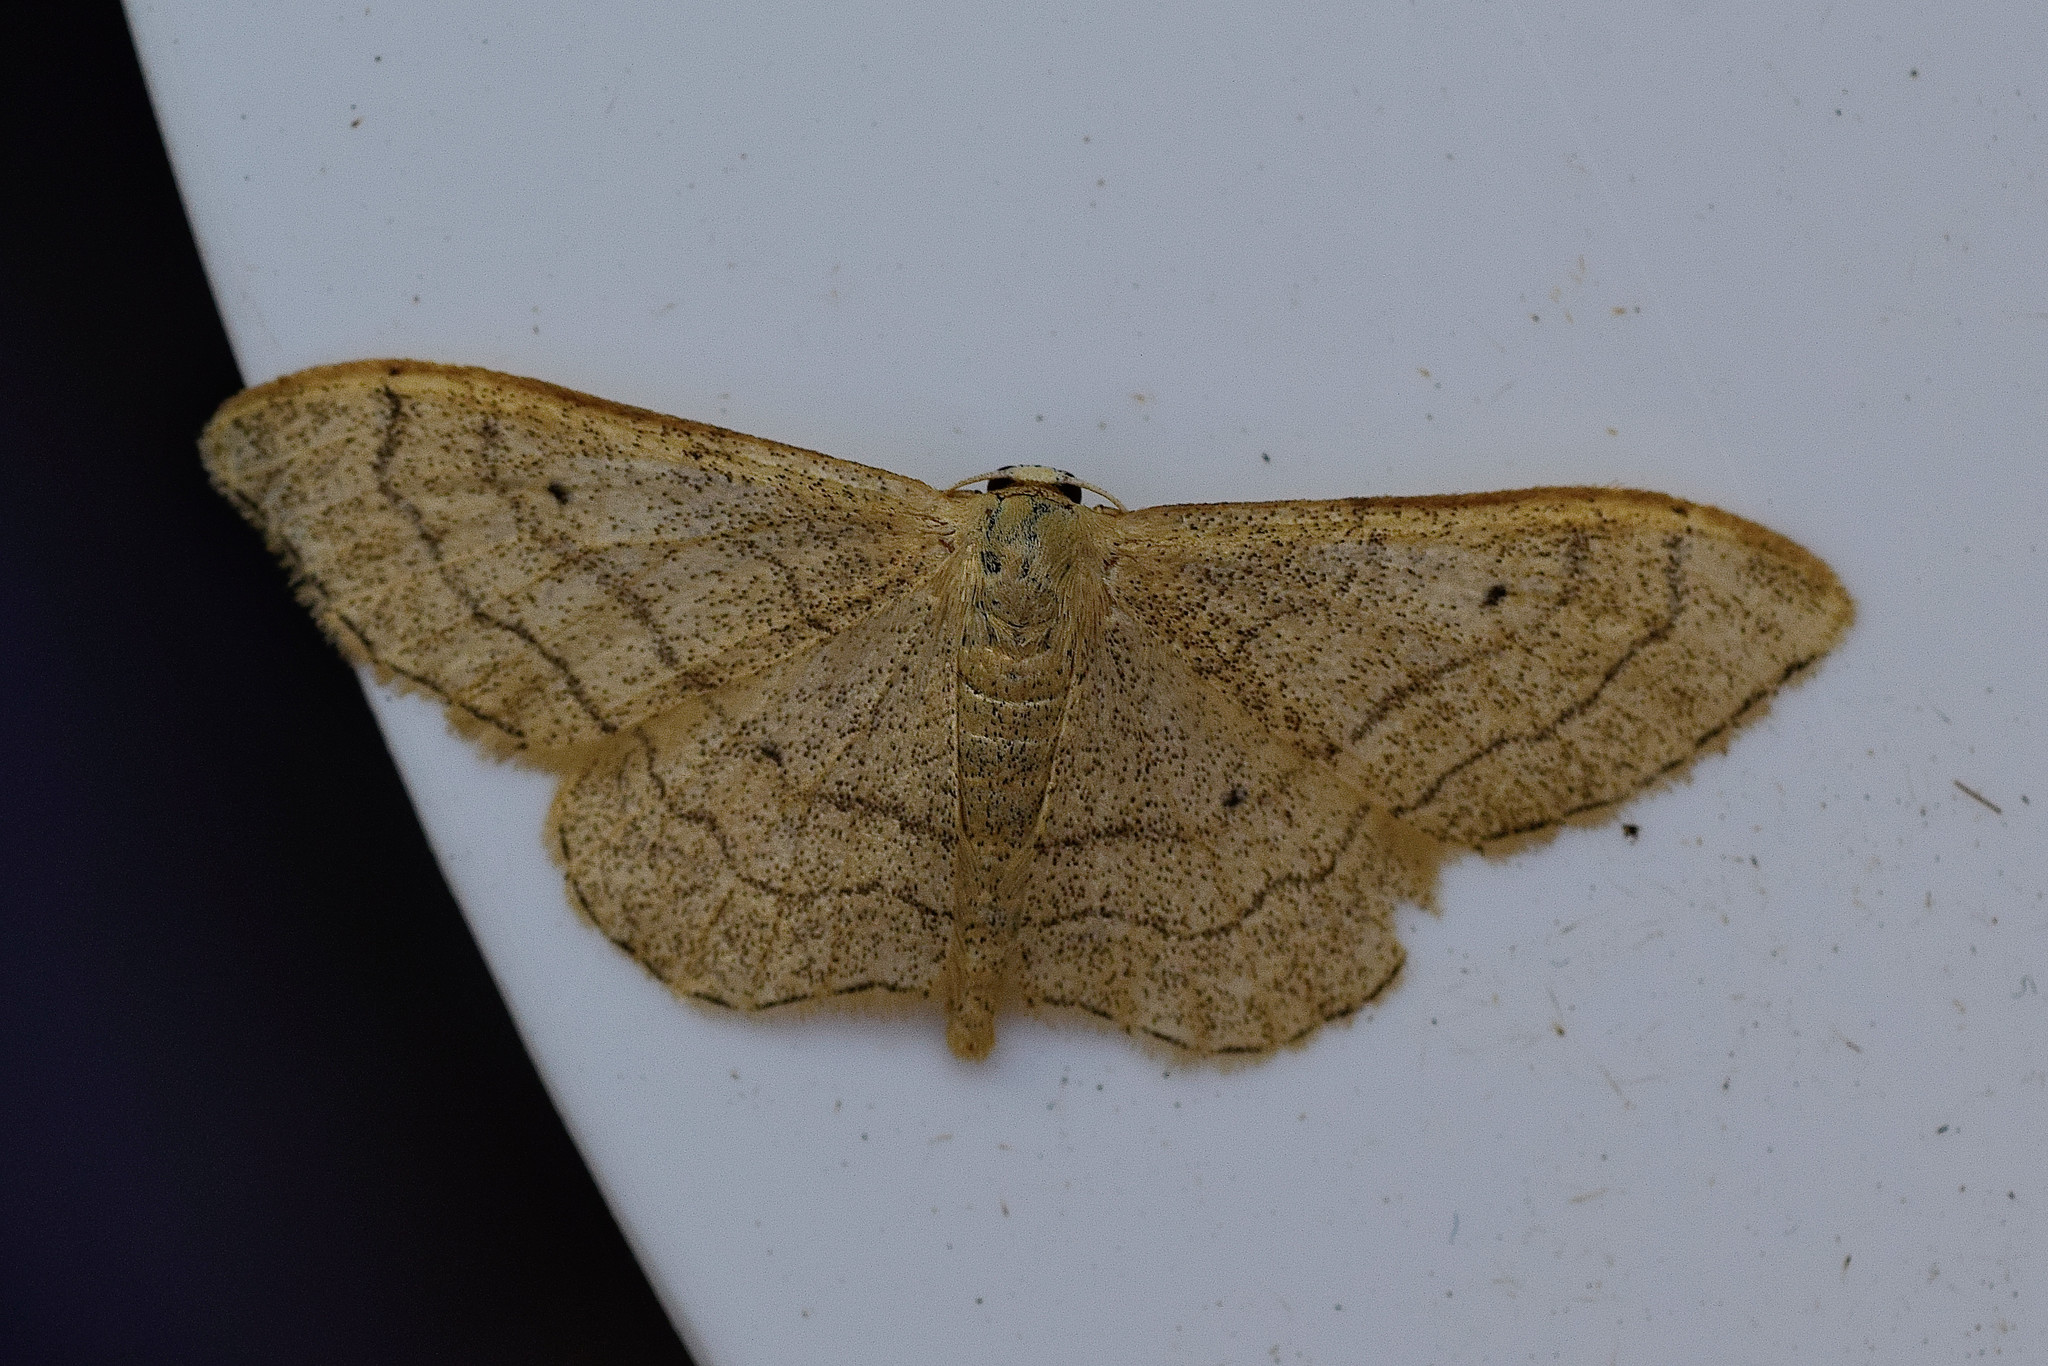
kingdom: Animalia
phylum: Arthropoda
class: Insecta
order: Lepidoptera
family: Geometridae
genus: Idaea
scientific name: Idaea aversata
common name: Riband wave
